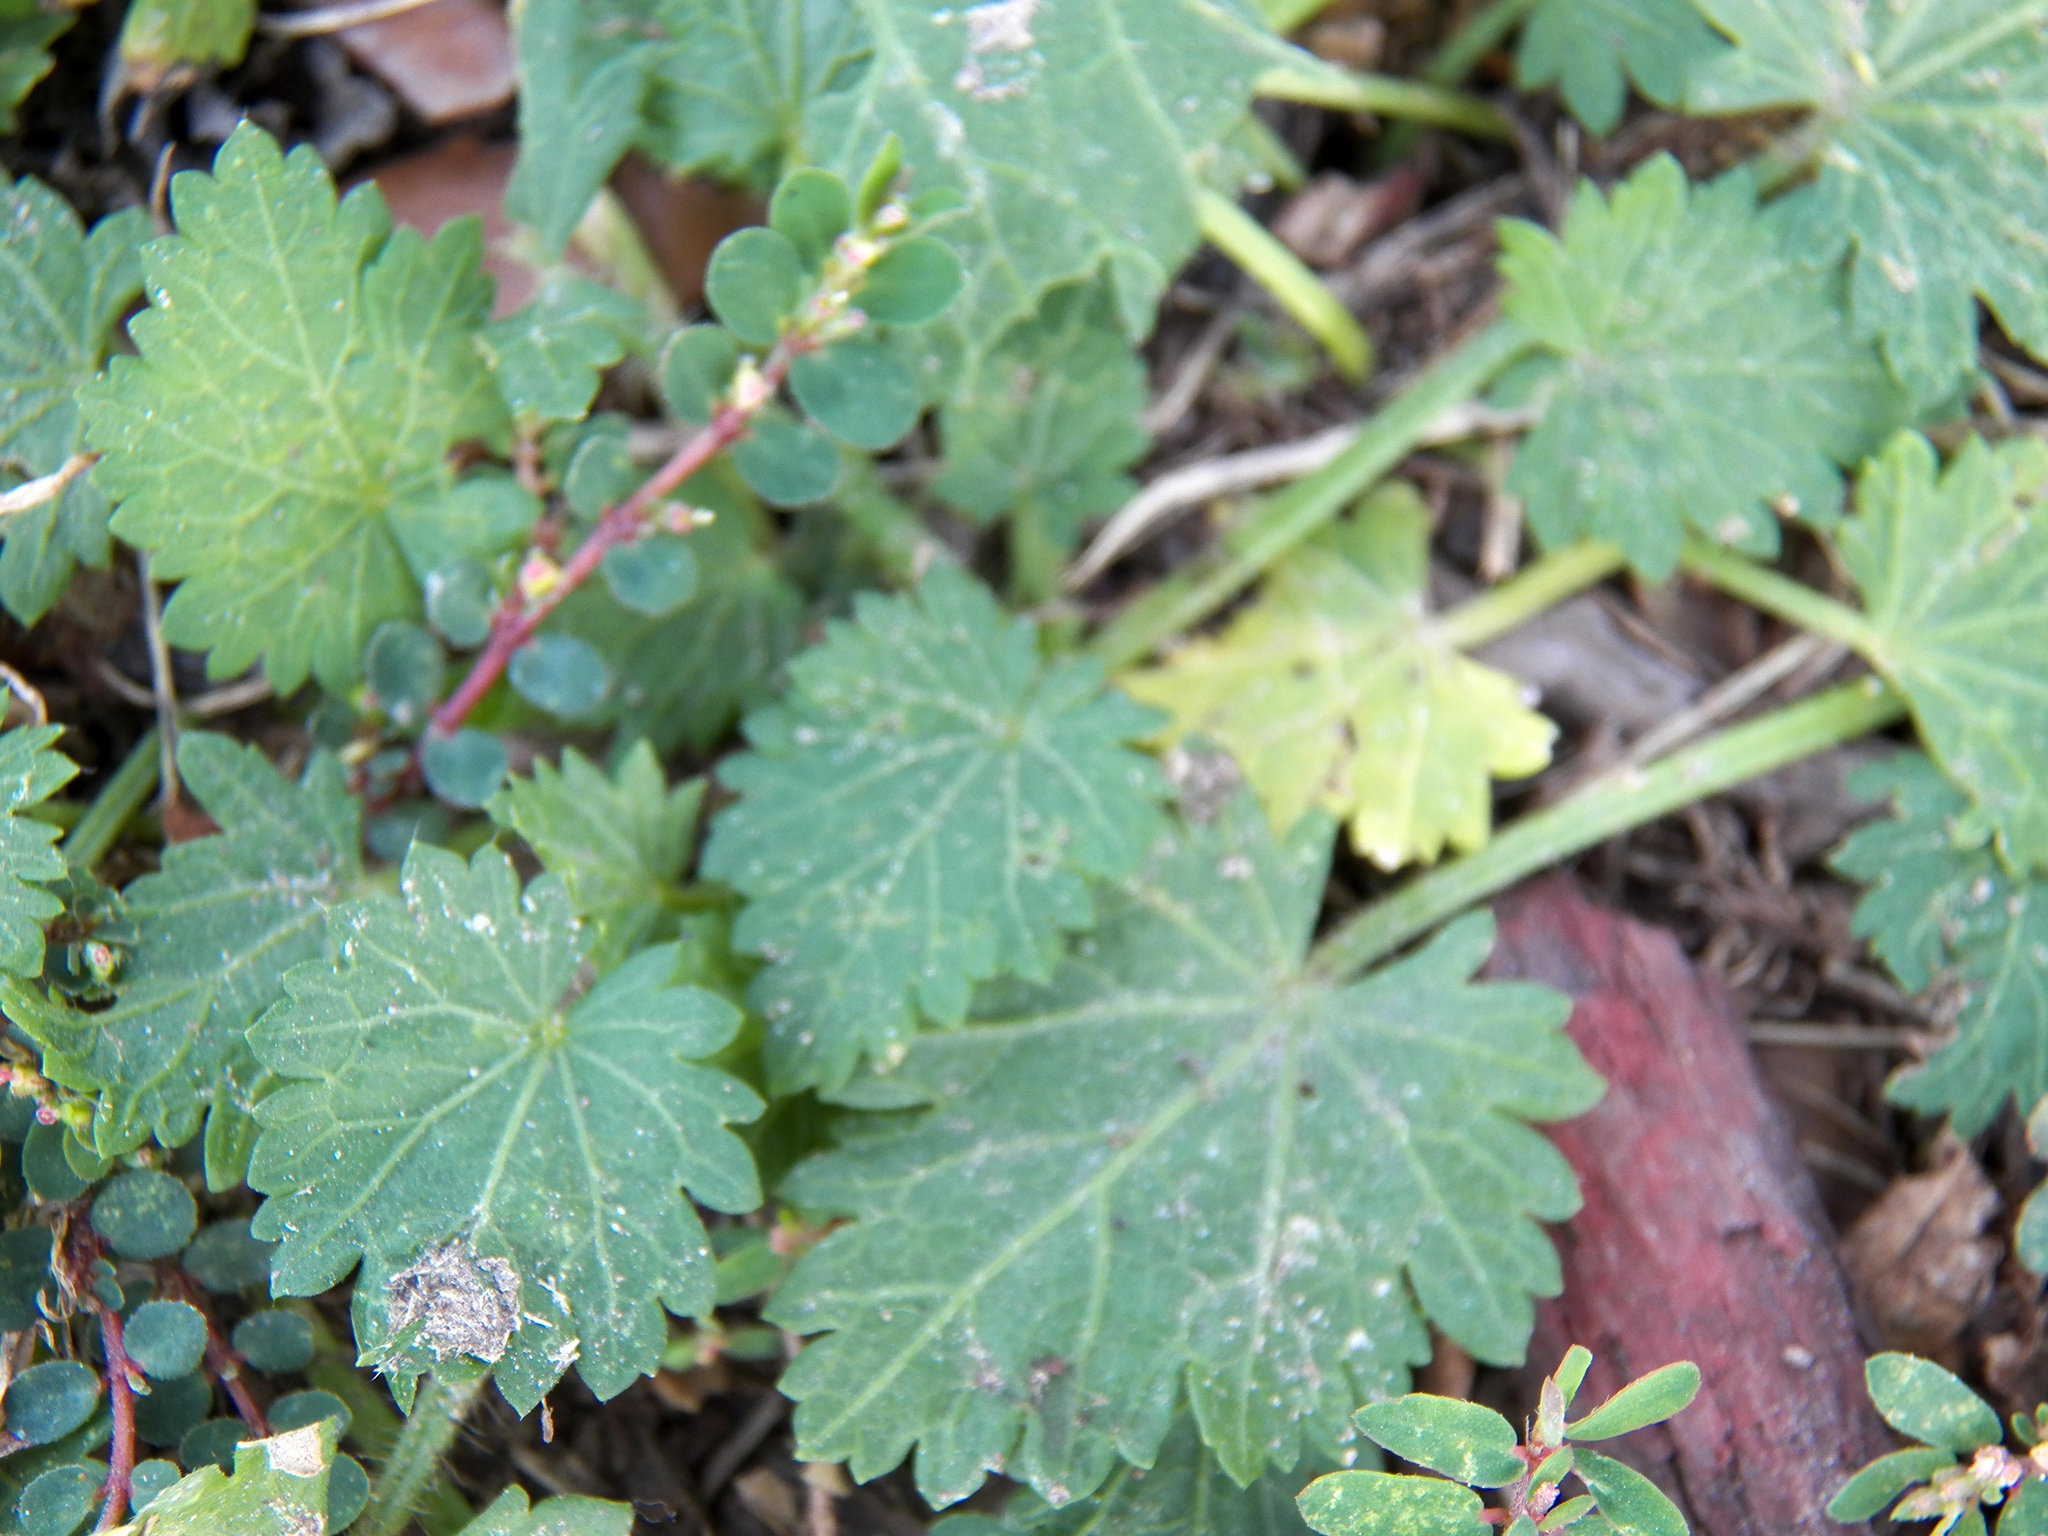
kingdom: Plantae
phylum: Tracheophyta
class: Magnoliopsida
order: Malvales
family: Malvaceae
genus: Modiola
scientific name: Modiola caroliniana
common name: Carolina bristlemallow
